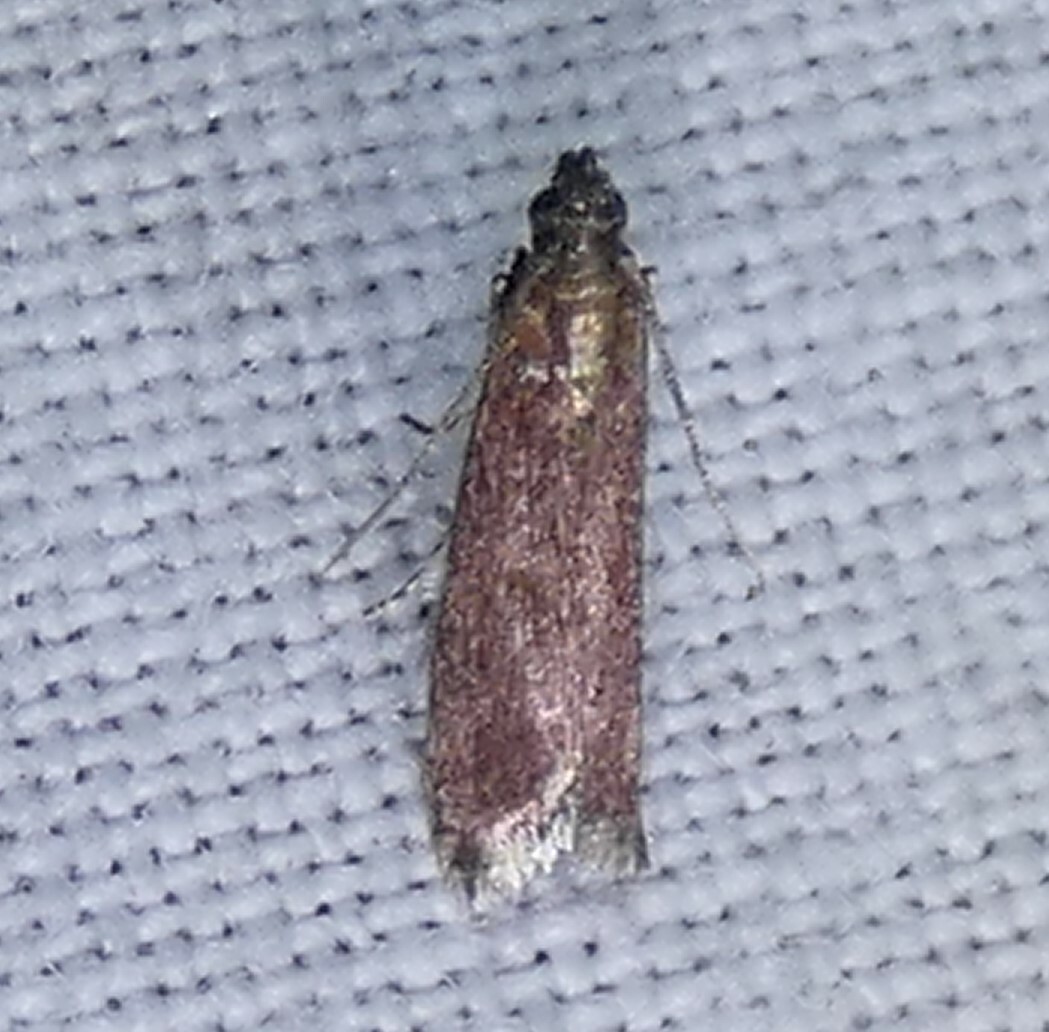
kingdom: Animalia
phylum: Arthropoda
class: Insecta
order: Lepidoptera
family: Pyralidae
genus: Varneria
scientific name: Varneria postremella
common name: Rusty varneria moth
